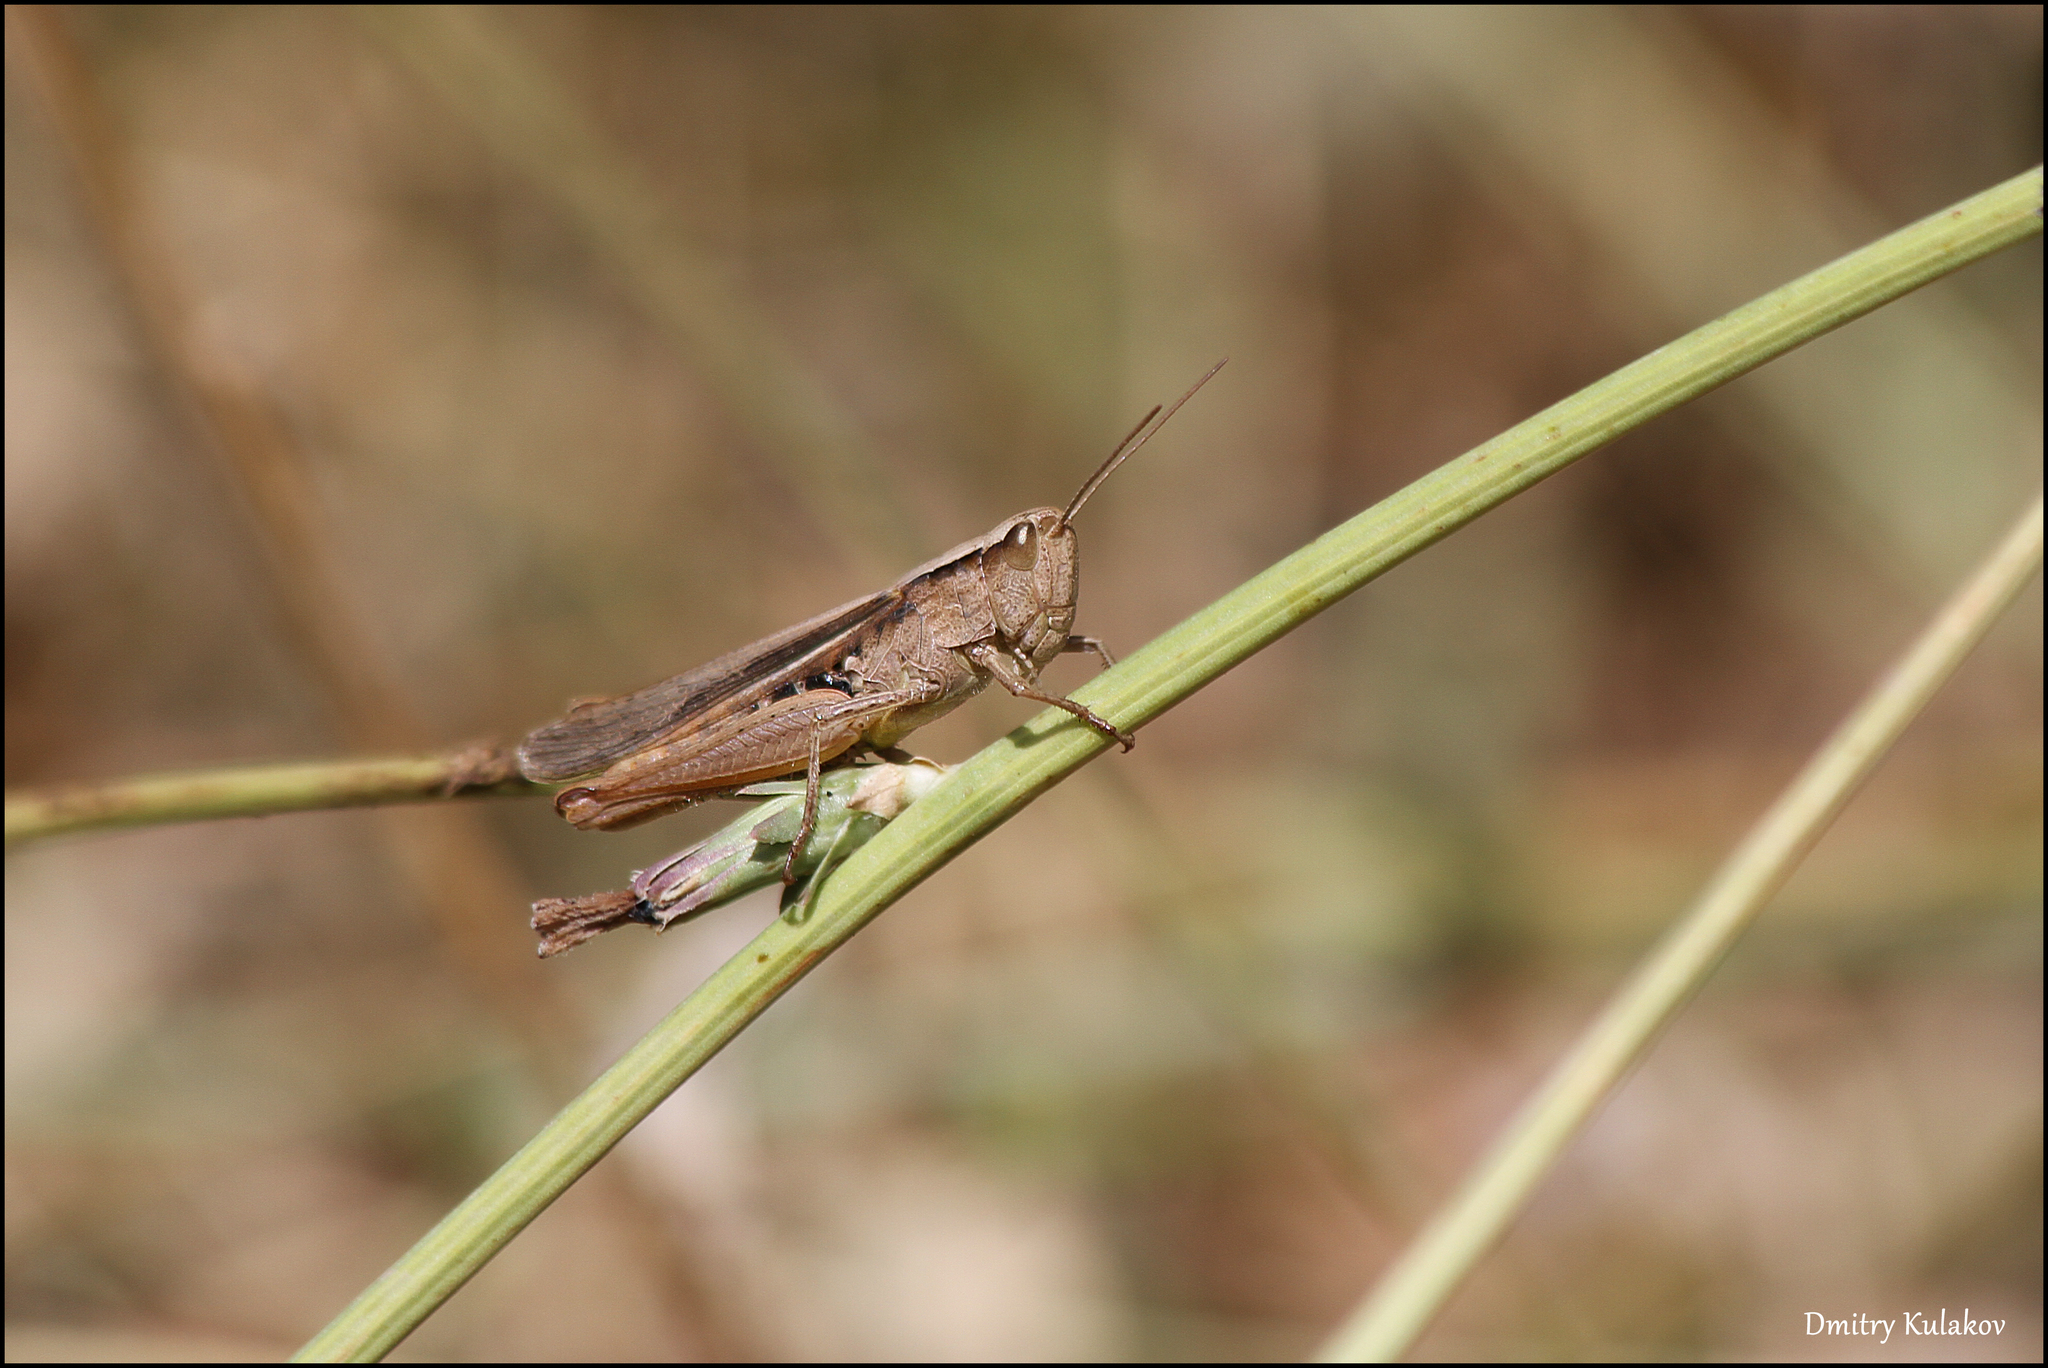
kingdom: Animalia
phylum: Arthropoda
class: Insecta
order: Orthoptera
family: Acrididae
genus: Chorthippus
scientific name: Chorthippus dichrous
